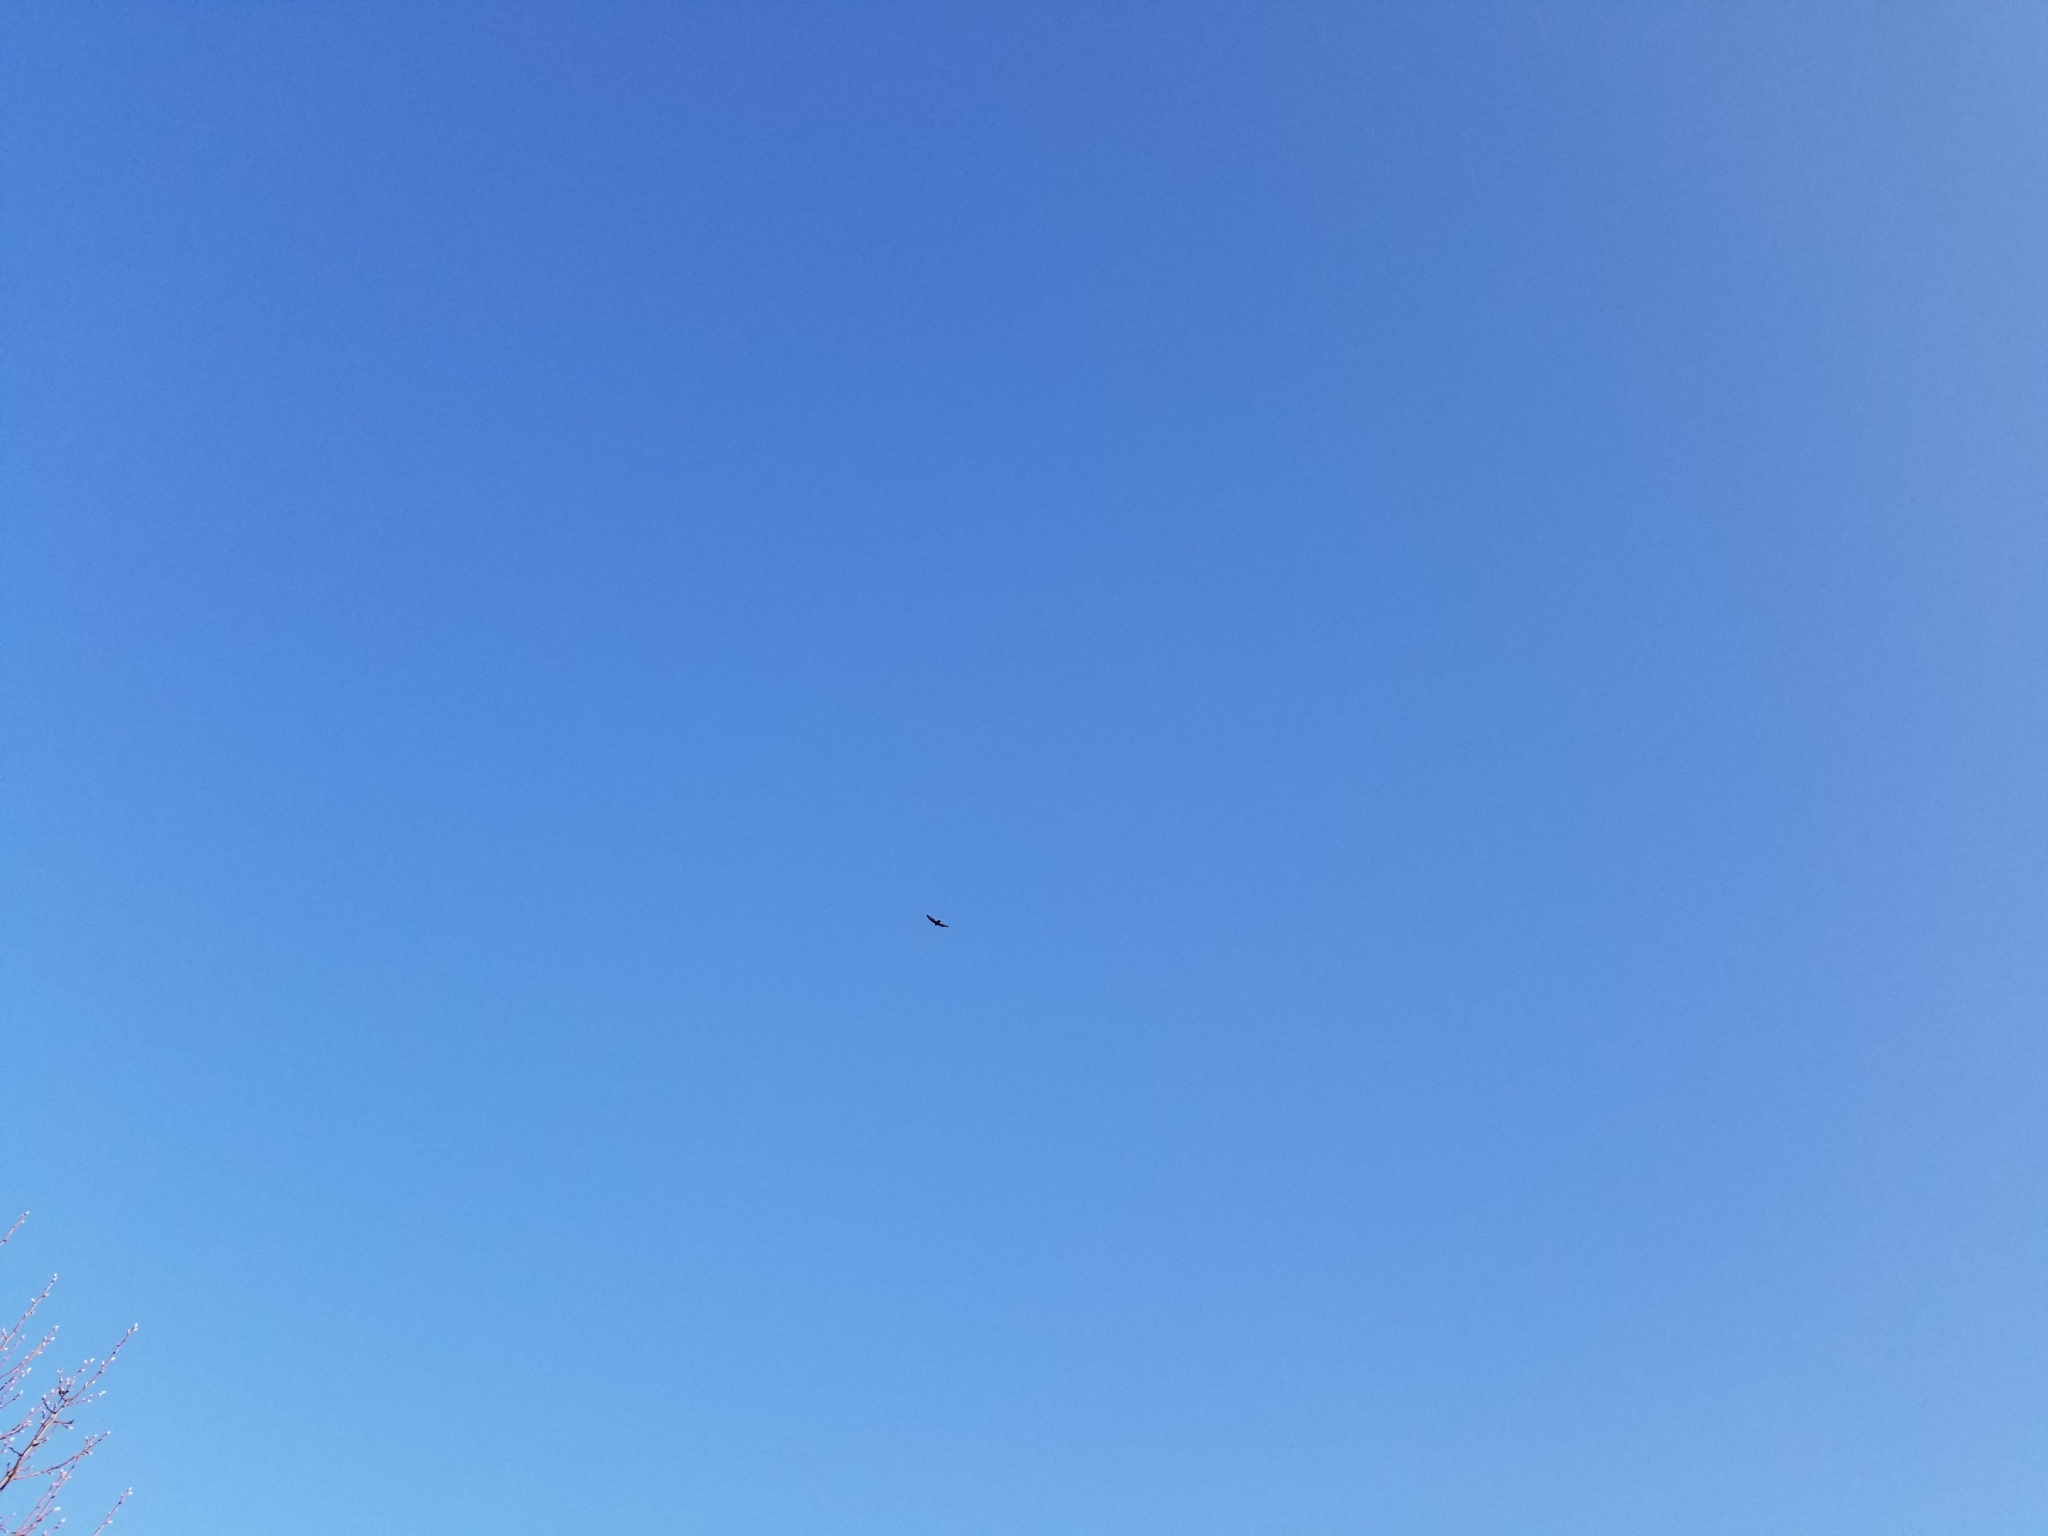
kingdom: Animalia
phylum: Chordata
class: Aves
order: Accipitriformes
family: Cathartidae
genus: Cathartes
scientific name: Cathartes aura
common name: Turkey vulture
